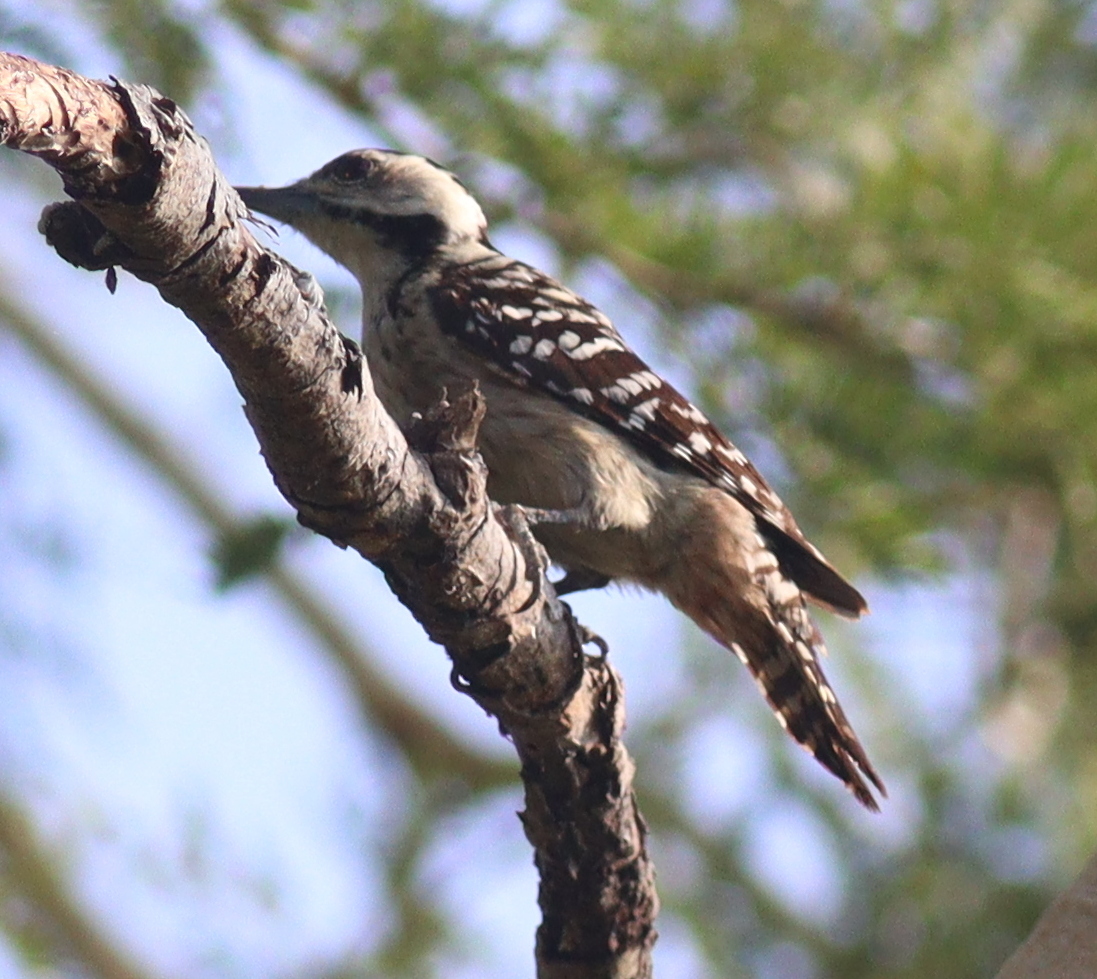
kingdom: Animalia
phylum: Chordata
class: Aves
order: Piciformes
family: Picidae
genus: Dendrocopos
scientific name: Dendrocopos analis
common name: Freckle-breasted woodpecker
